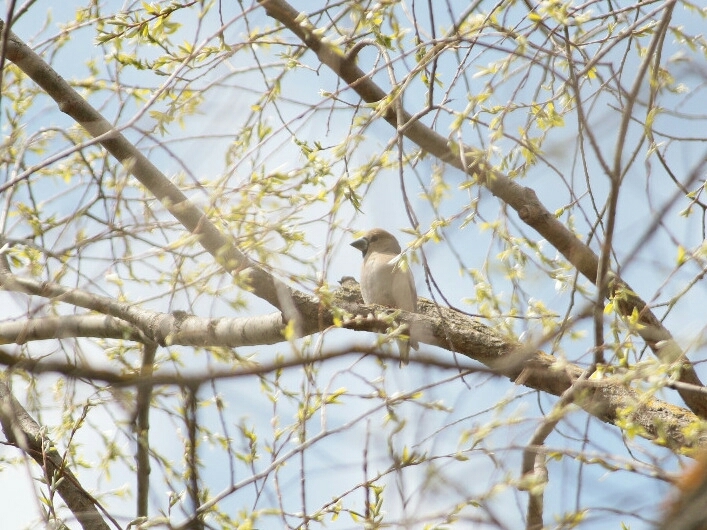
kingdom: Animalia
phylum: Chordata
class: Aves
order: Passeriformes
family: Fringillidae
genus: Coccothraustes
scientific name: Coccothraustes coccothraustes
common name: Hawfinch
